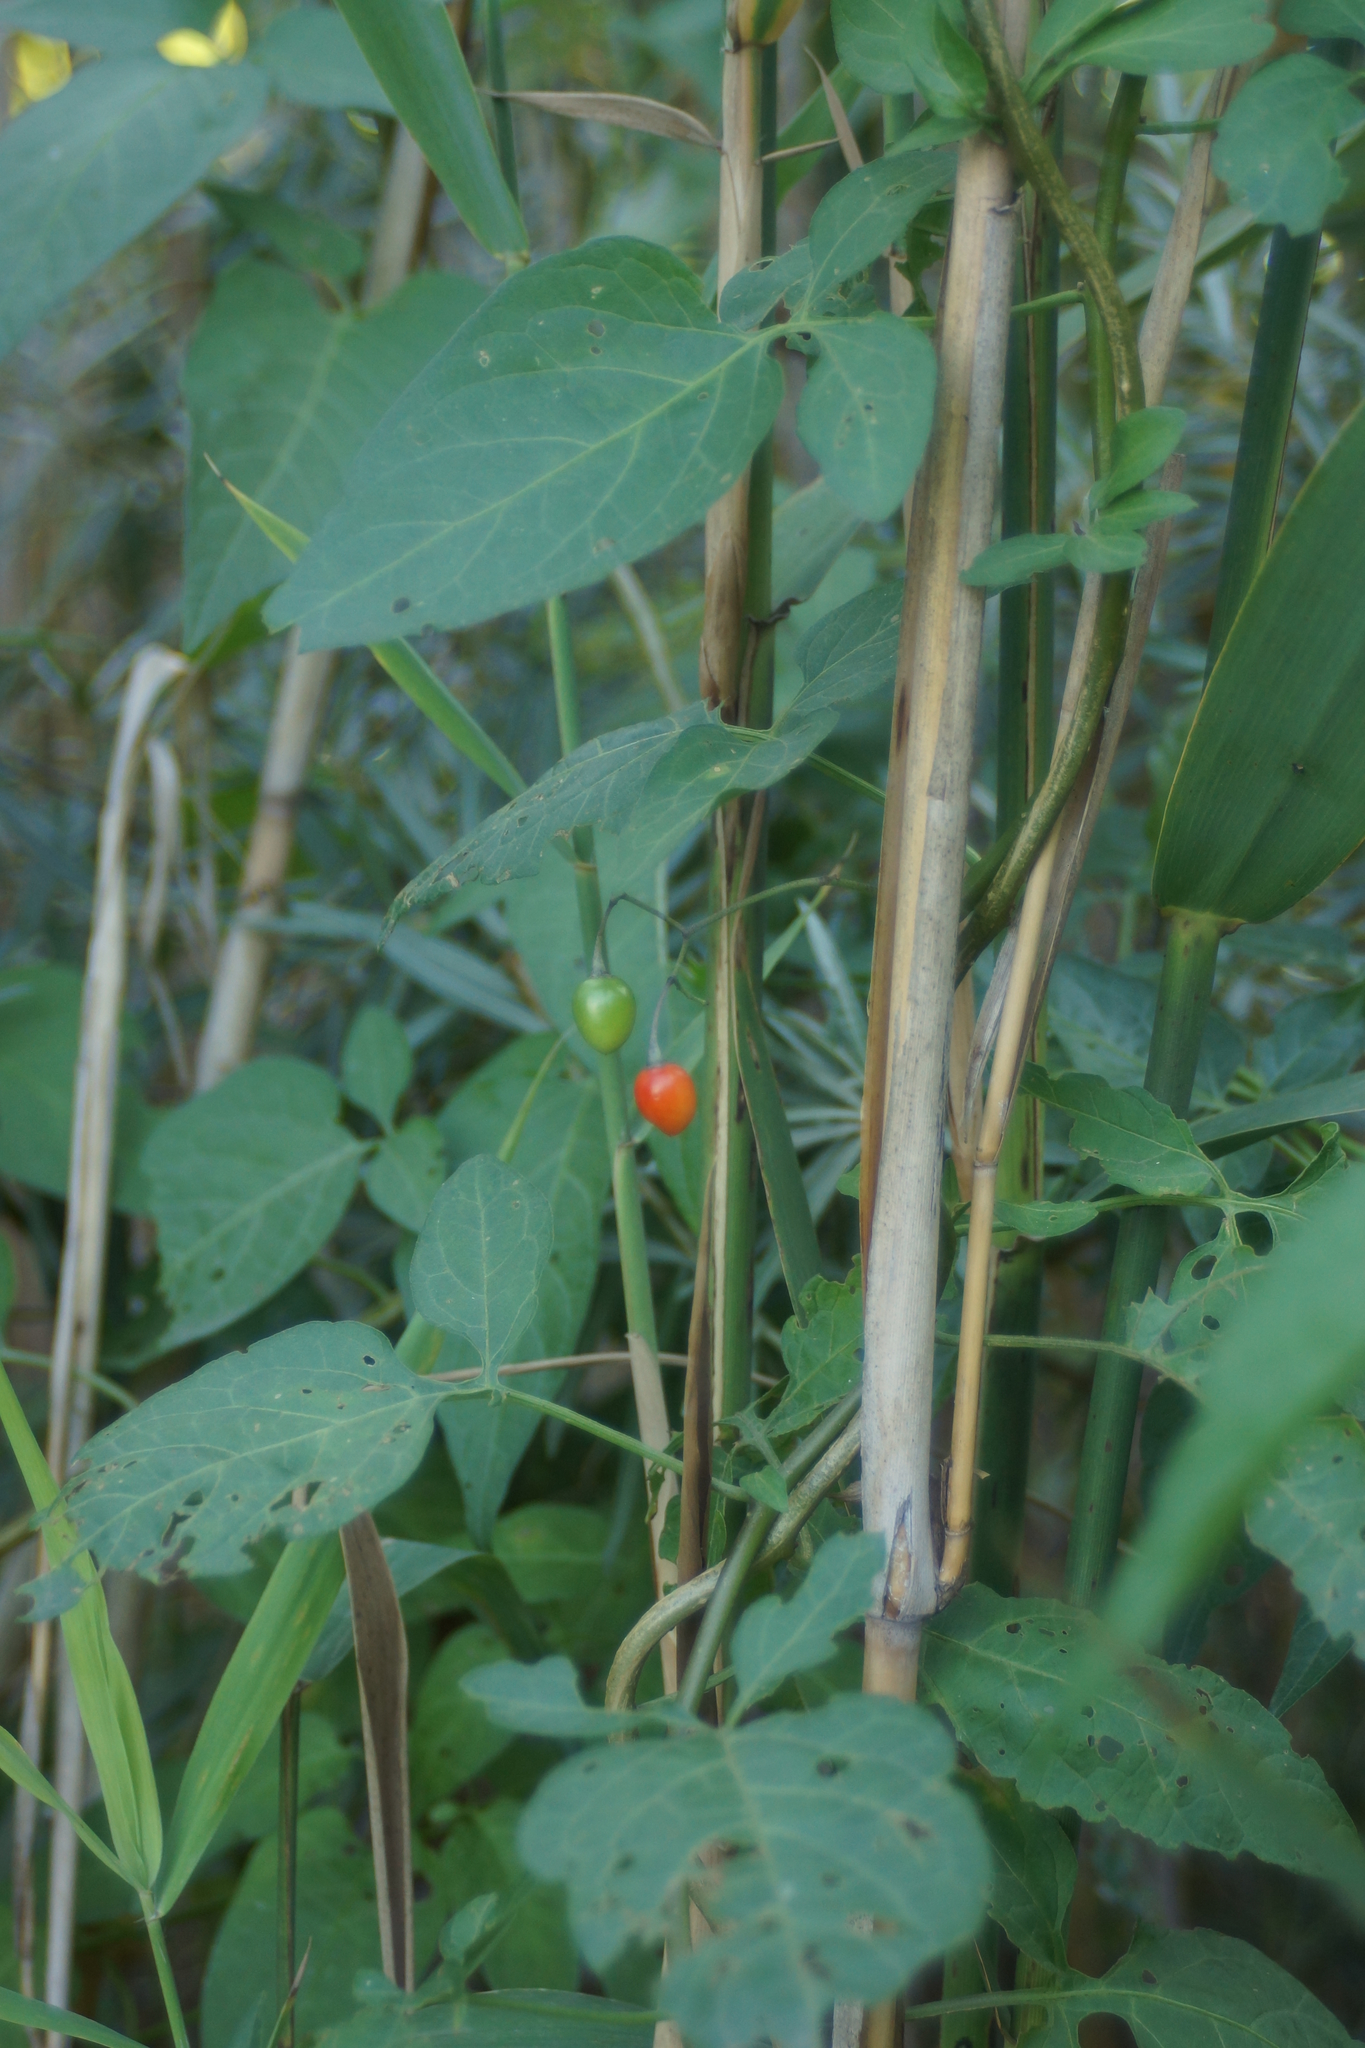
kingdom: Plantae
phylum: Tracheophyta
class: Magnoliopsida
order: Solanales
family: Solanaceae
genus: Solanum
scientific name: Solanum dulcamara
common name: Climbing nightshade
